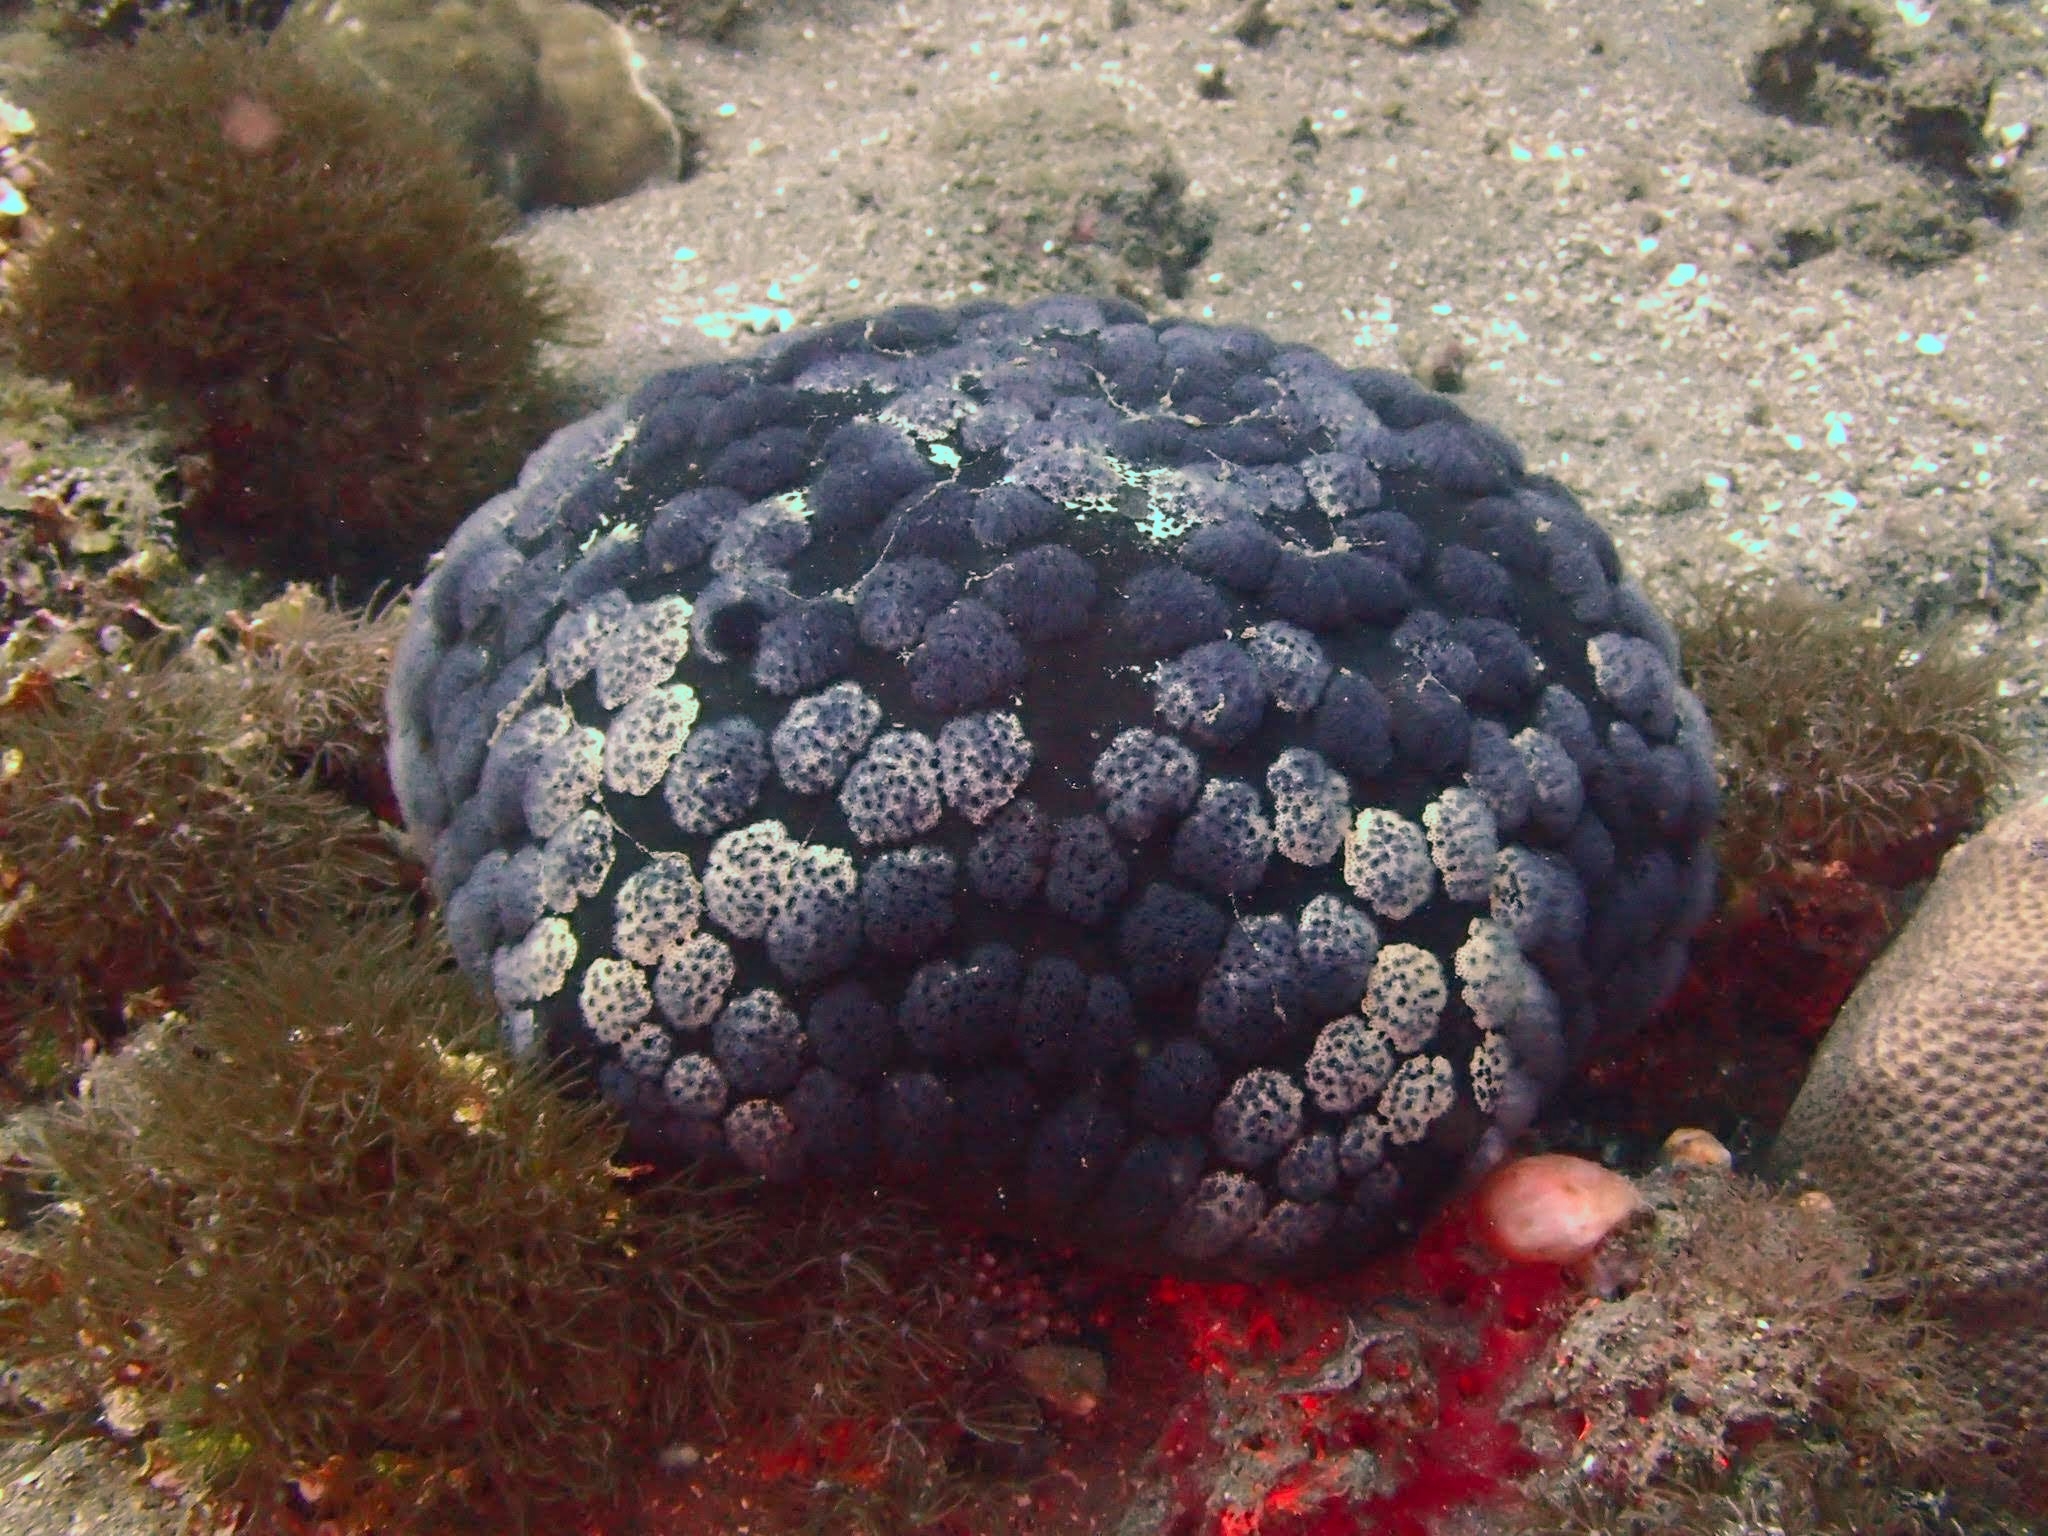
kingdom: Animalia
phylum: Echinodermata
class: Asteroidea
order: Valvatida
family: Oreasteridae
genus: Culcita
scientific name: Culcita novaeguineae
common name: Cushion star
